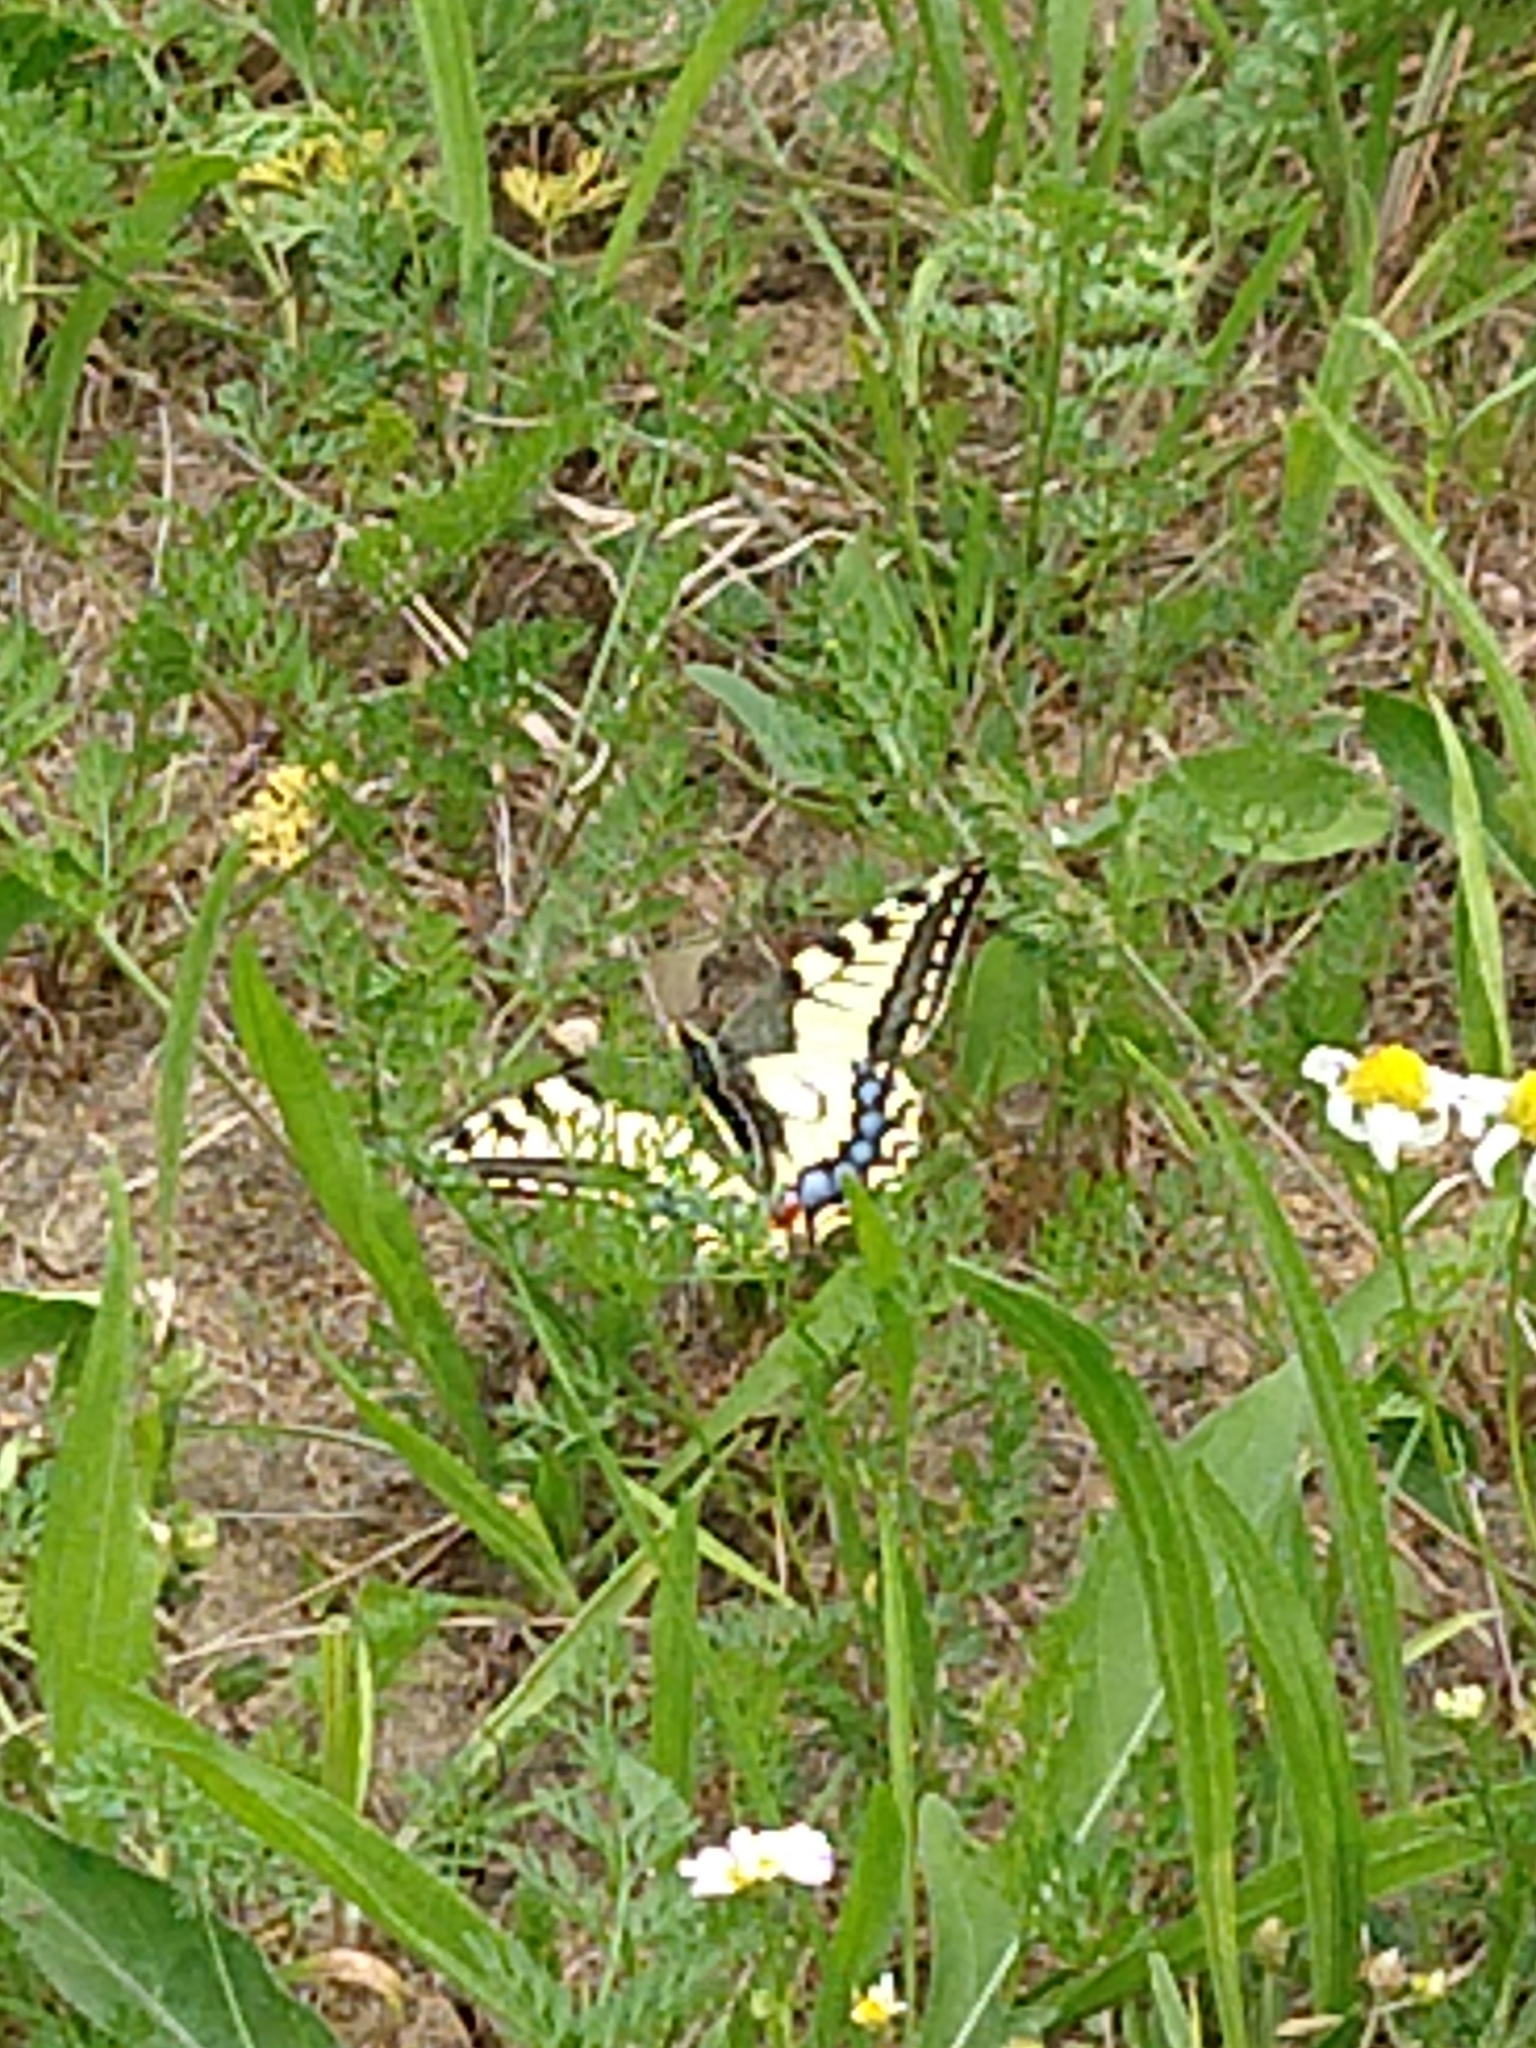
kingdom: Animalia
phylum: Arthropoda
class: Insecta
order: Lepidoptera
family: Papilionidae
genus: Papilio
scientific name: Papilio machaon
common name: Swallowtail
